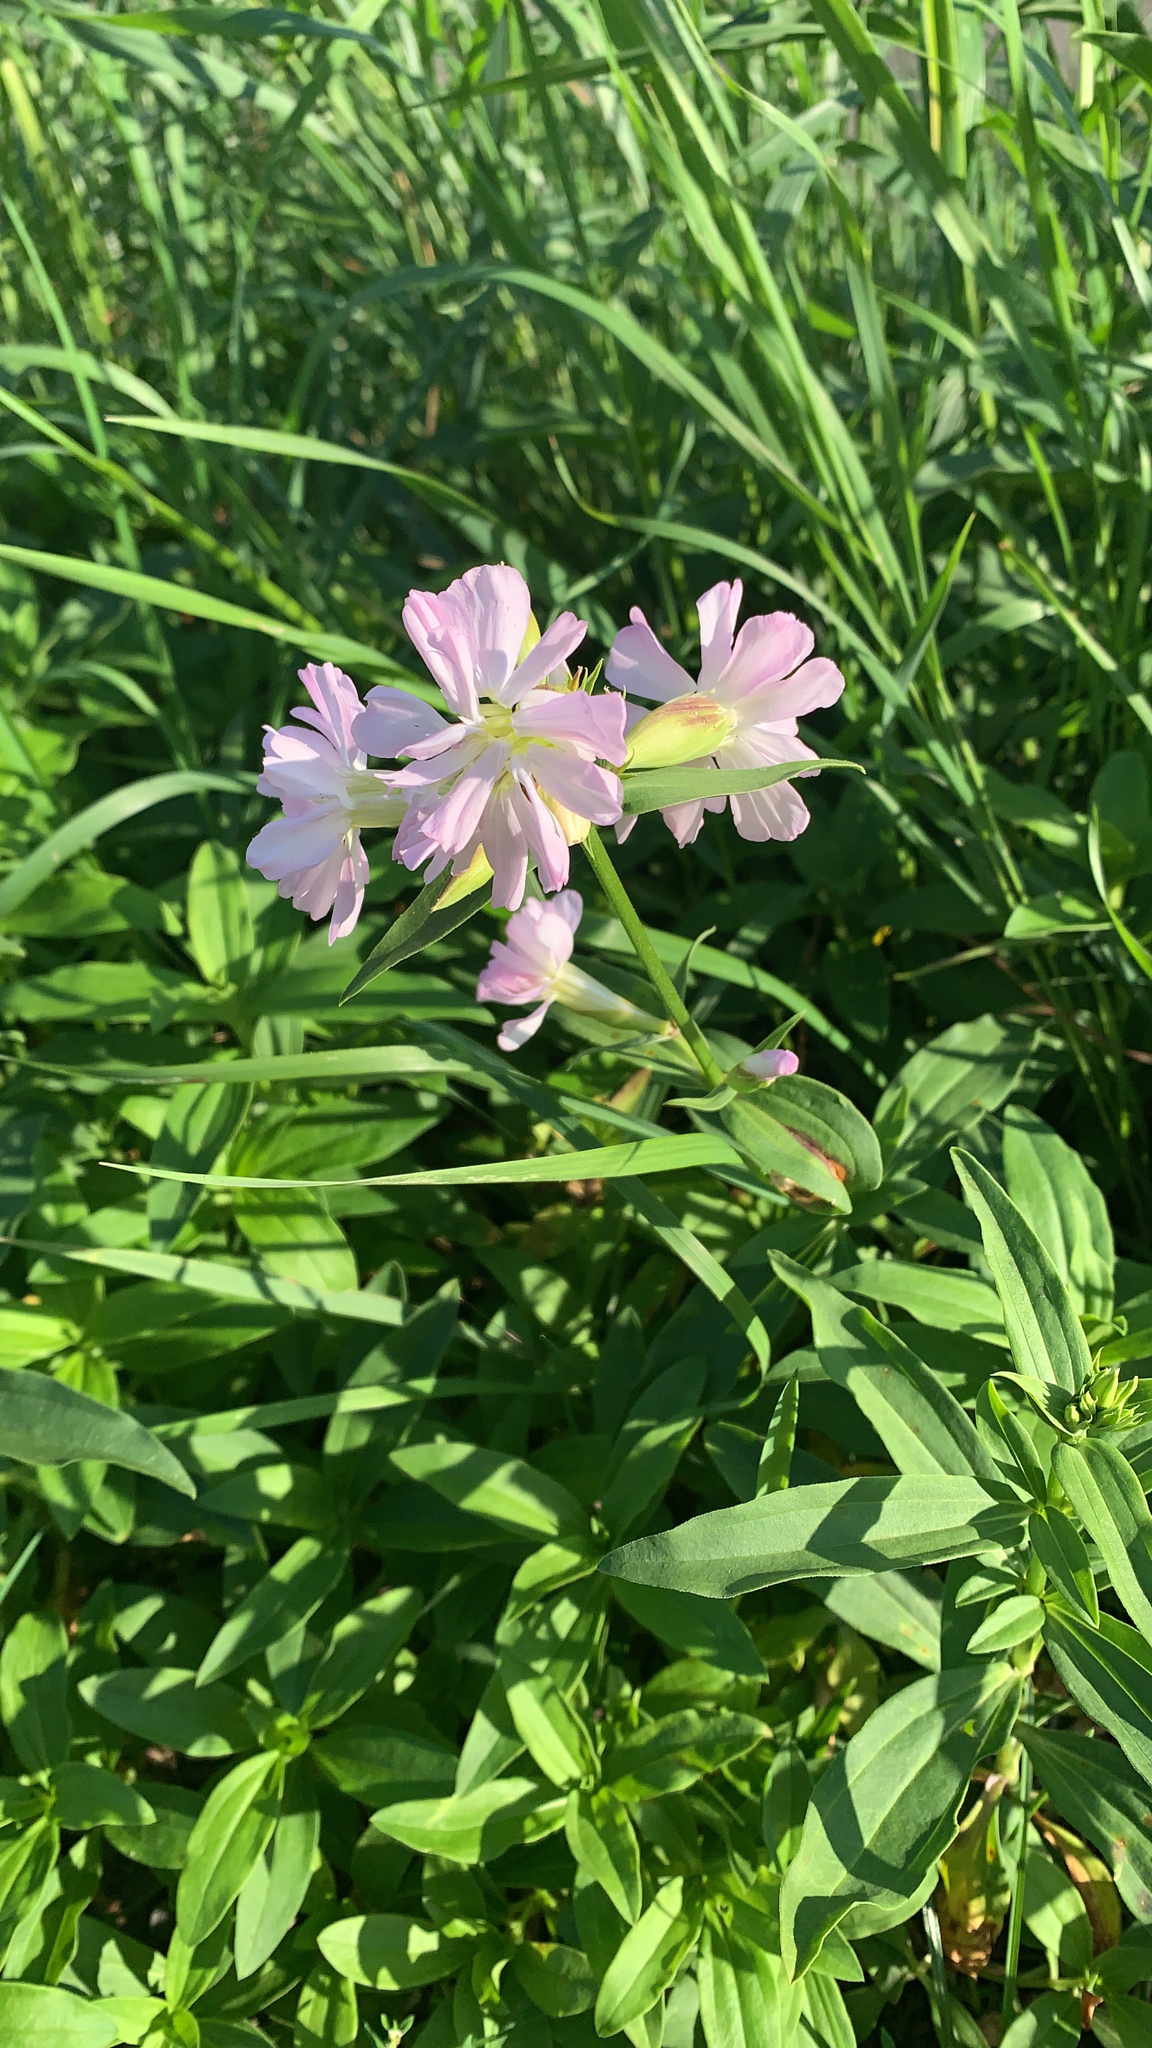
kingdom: Plantae
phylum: Tracheophyta
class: Magnoliopsida
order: Caryophyllales
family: Caryophyllaceae
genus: Saponaria
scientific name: Saponaria officinalis
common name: Soapwort
